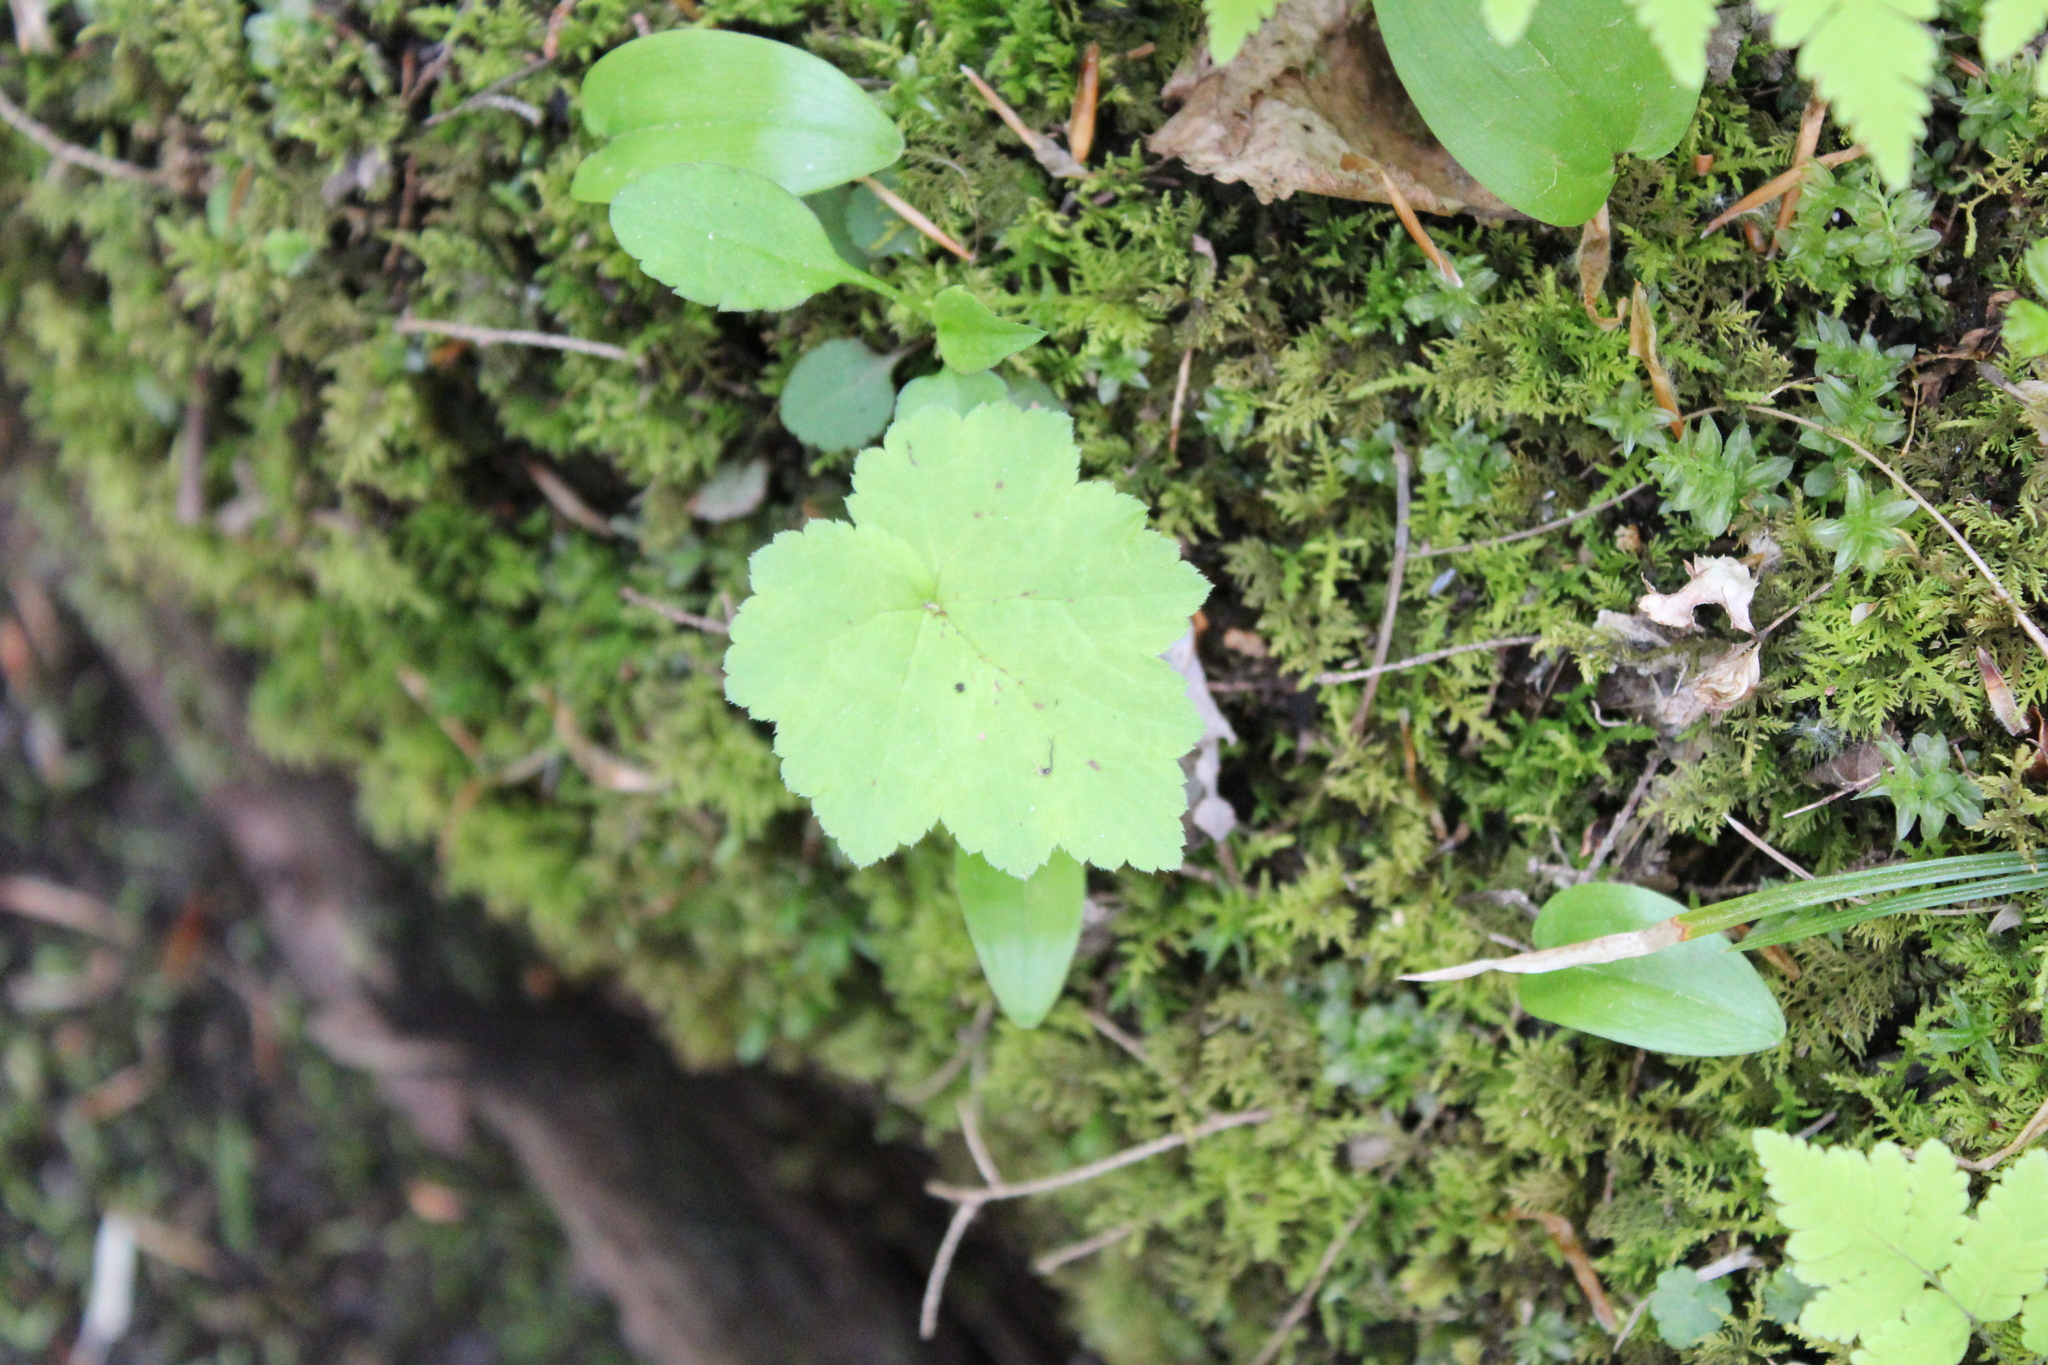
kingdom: Plantae
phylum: Tracheophyta
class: Magnoliopsida
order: Saxifragales
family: Saxifragaceae
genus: Tiarella
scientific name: Tiarella stolonifera
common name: Stoloniferous foamflower
